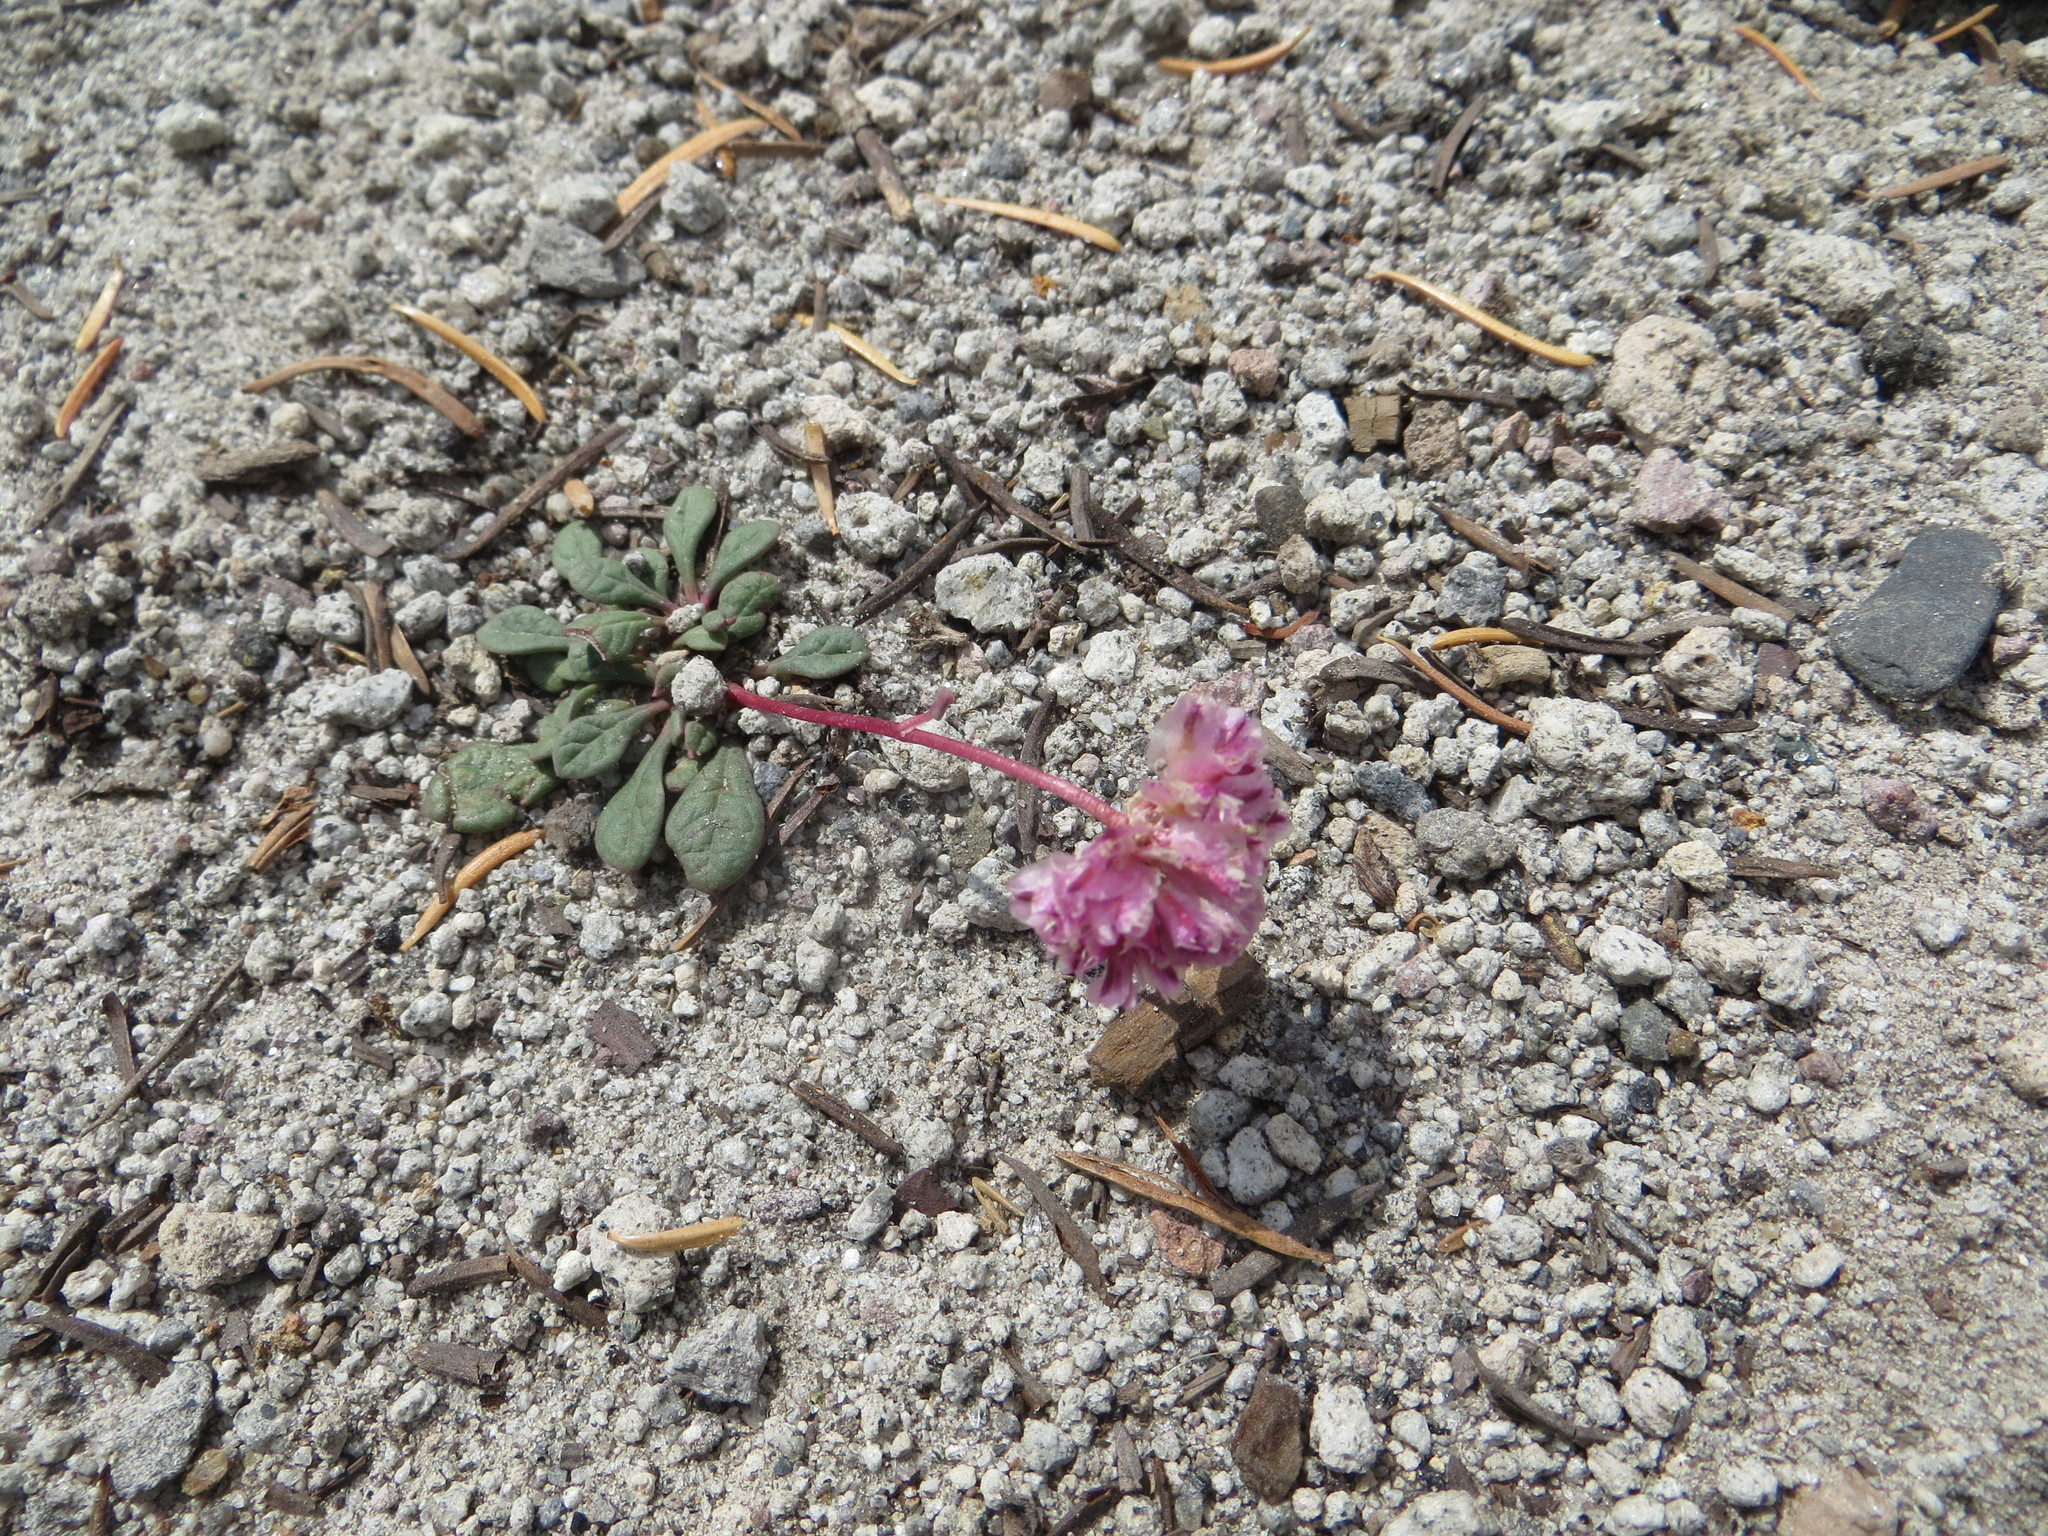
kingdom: Plantae
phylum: Tracheophyta
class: Magnoliopsida
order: Caryophyllales
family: Montiaceae
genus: Calyptridium
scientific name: Calyptridium umbellatum
